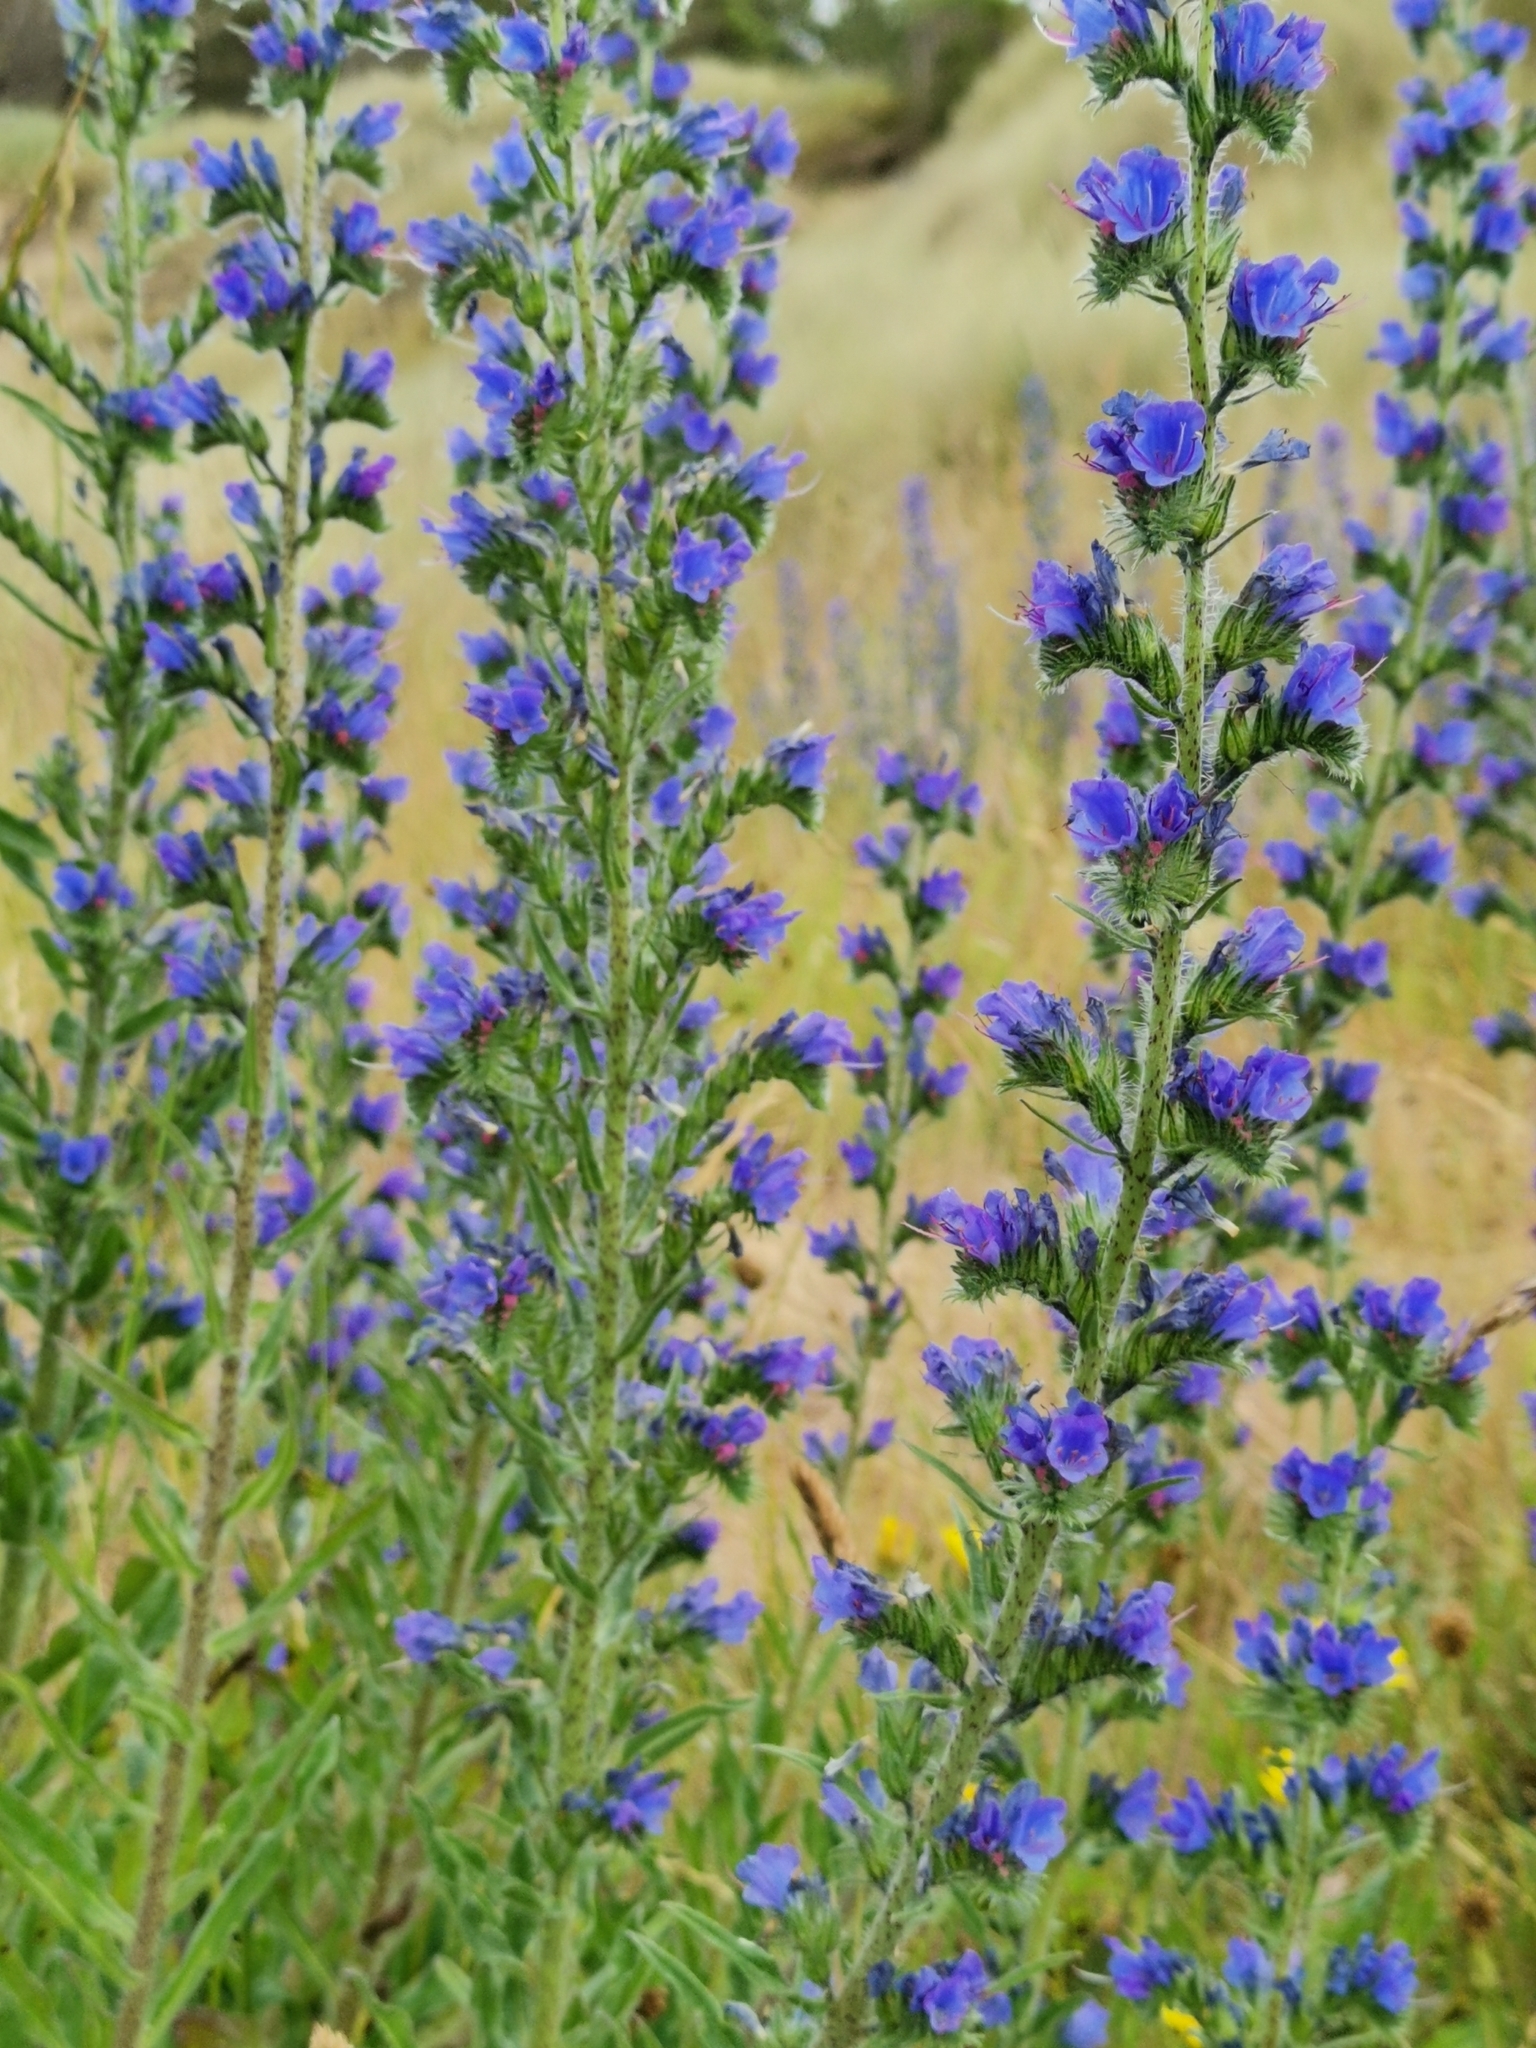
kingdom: Plantae
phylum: Tracheophyta
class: Magnoliopsida
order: Boraginales
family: Boraginaceae
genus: Echium
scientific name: Echium vulgare
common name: Common viper's bugloss
